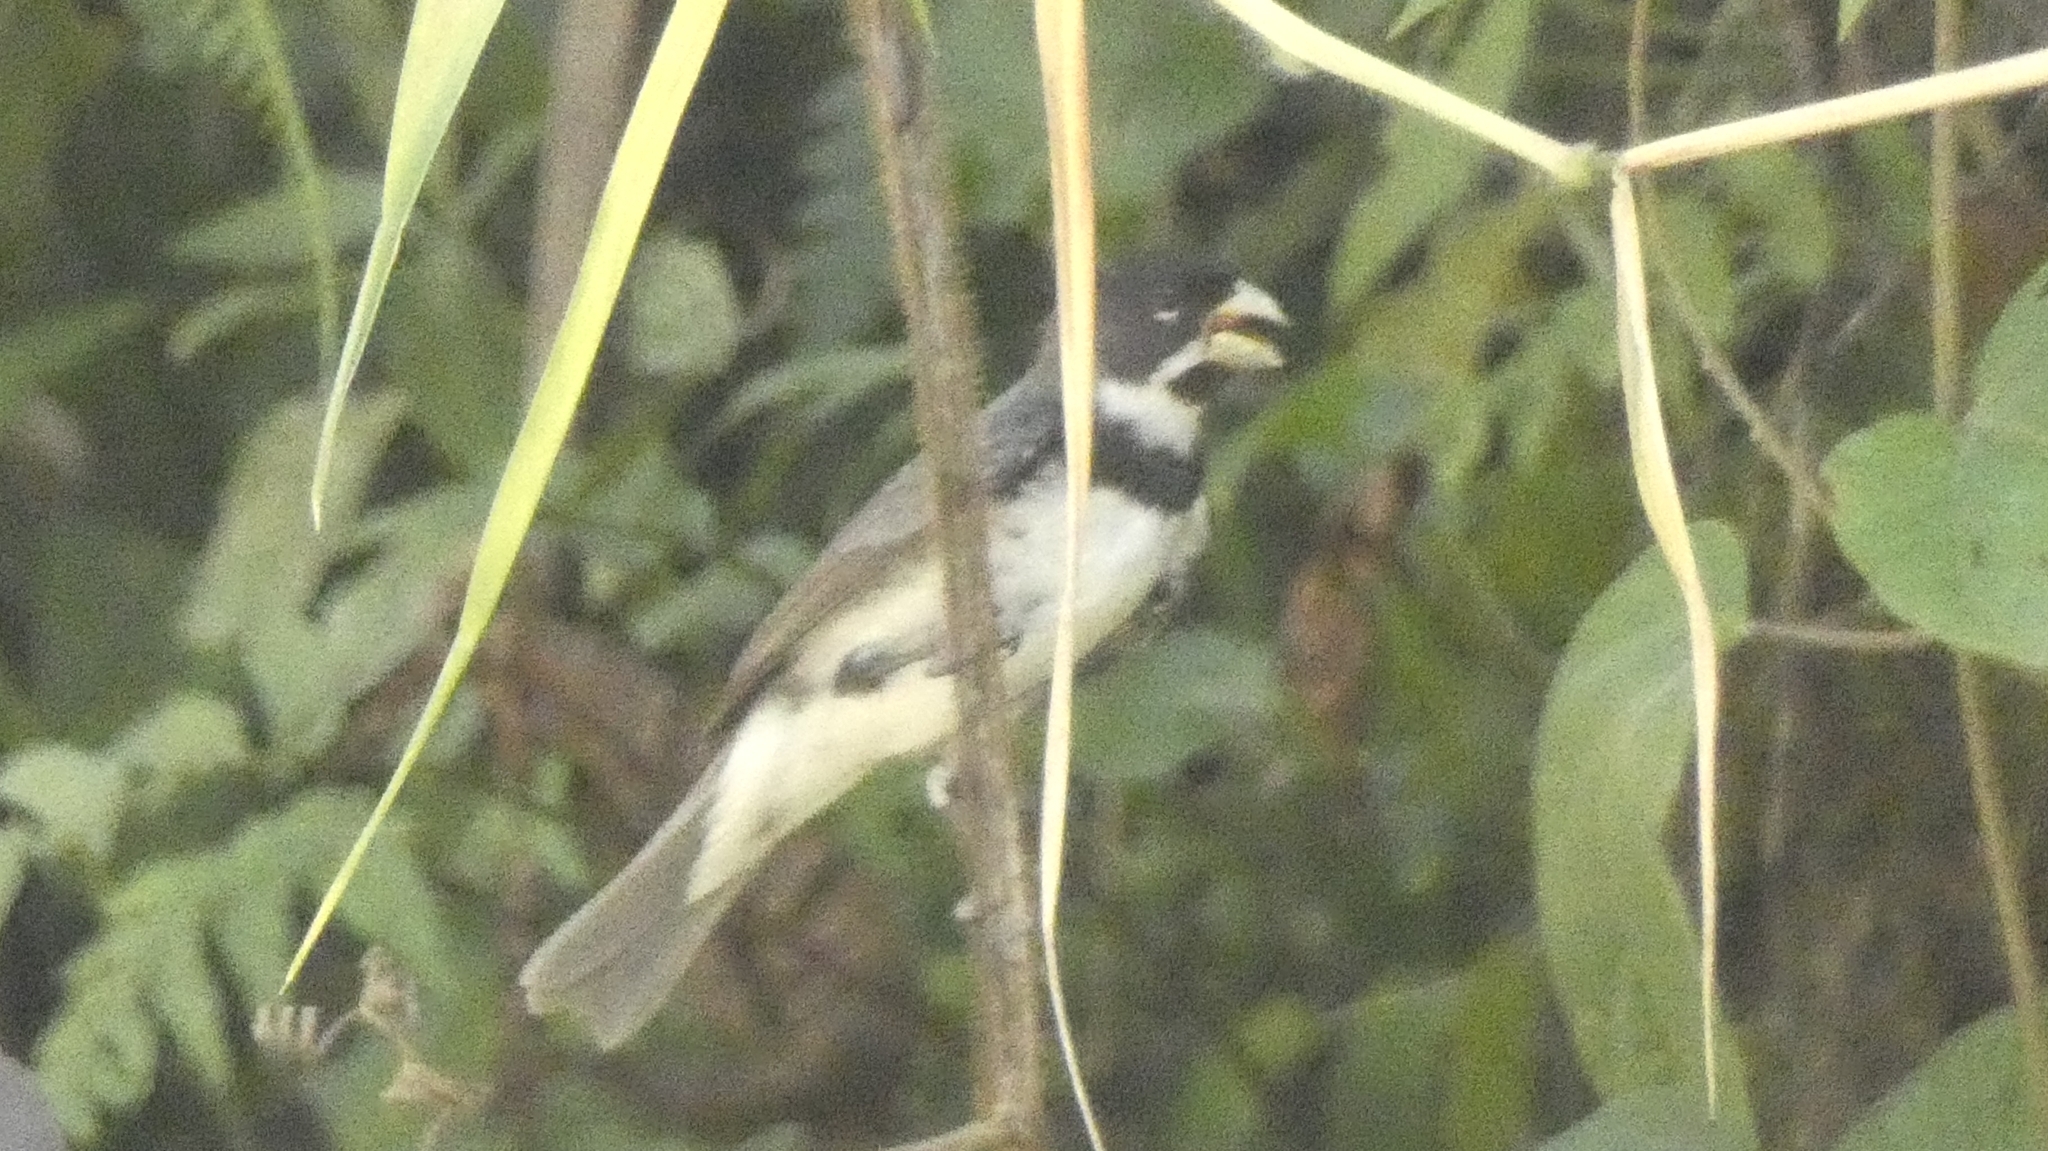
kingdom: Animalia
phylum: Chordata
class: Aves
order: Passeriformes
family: Thraupidae
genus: Sporophila
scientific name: Sporophila caerulescens
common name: Double-collared seedeater
